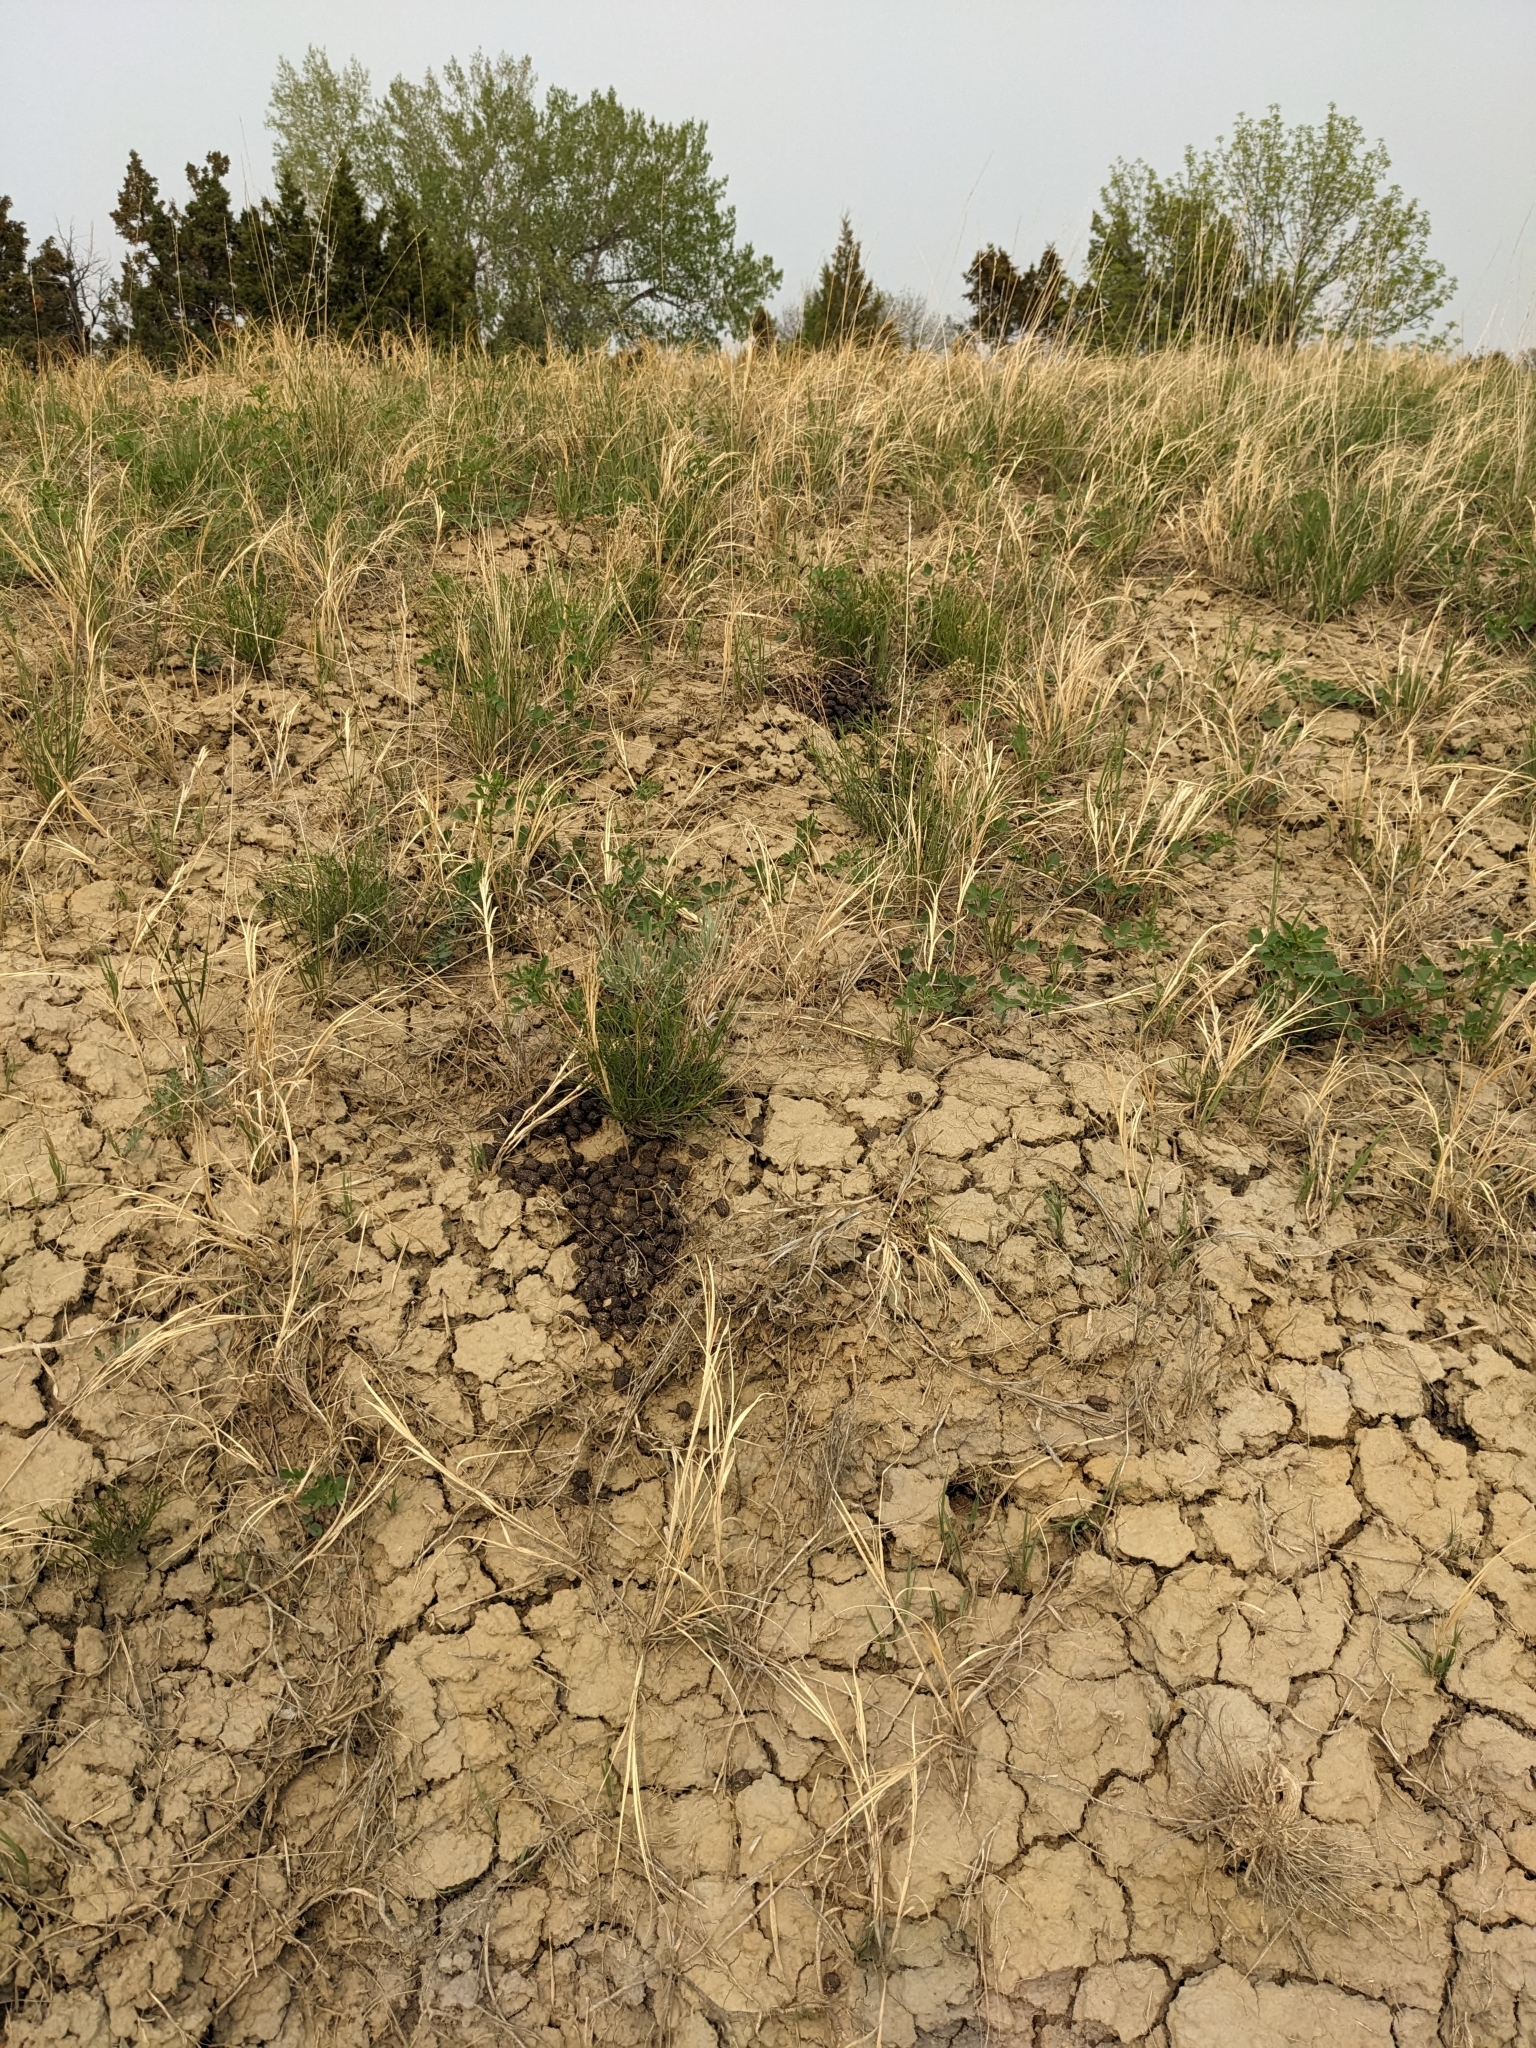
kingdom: Animalia
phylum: Chordata
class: Mammalia
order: Artiodactyla
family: Bovidae
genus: Ovis
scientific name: Ovis canadensis
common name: Bighorn sheep
